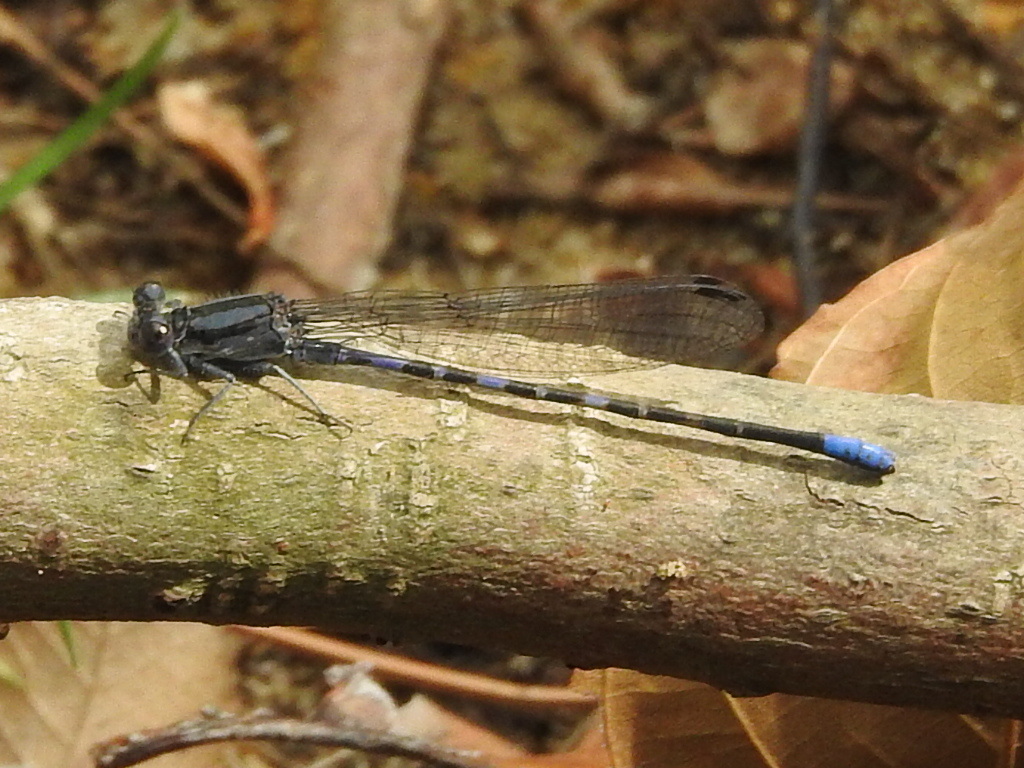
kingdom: Animalia
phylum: Arthropoda
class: Insecta
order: Odonata
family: Coenagrionidae
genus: Argia
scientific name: Argia immunda
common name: Kiowa dancer
